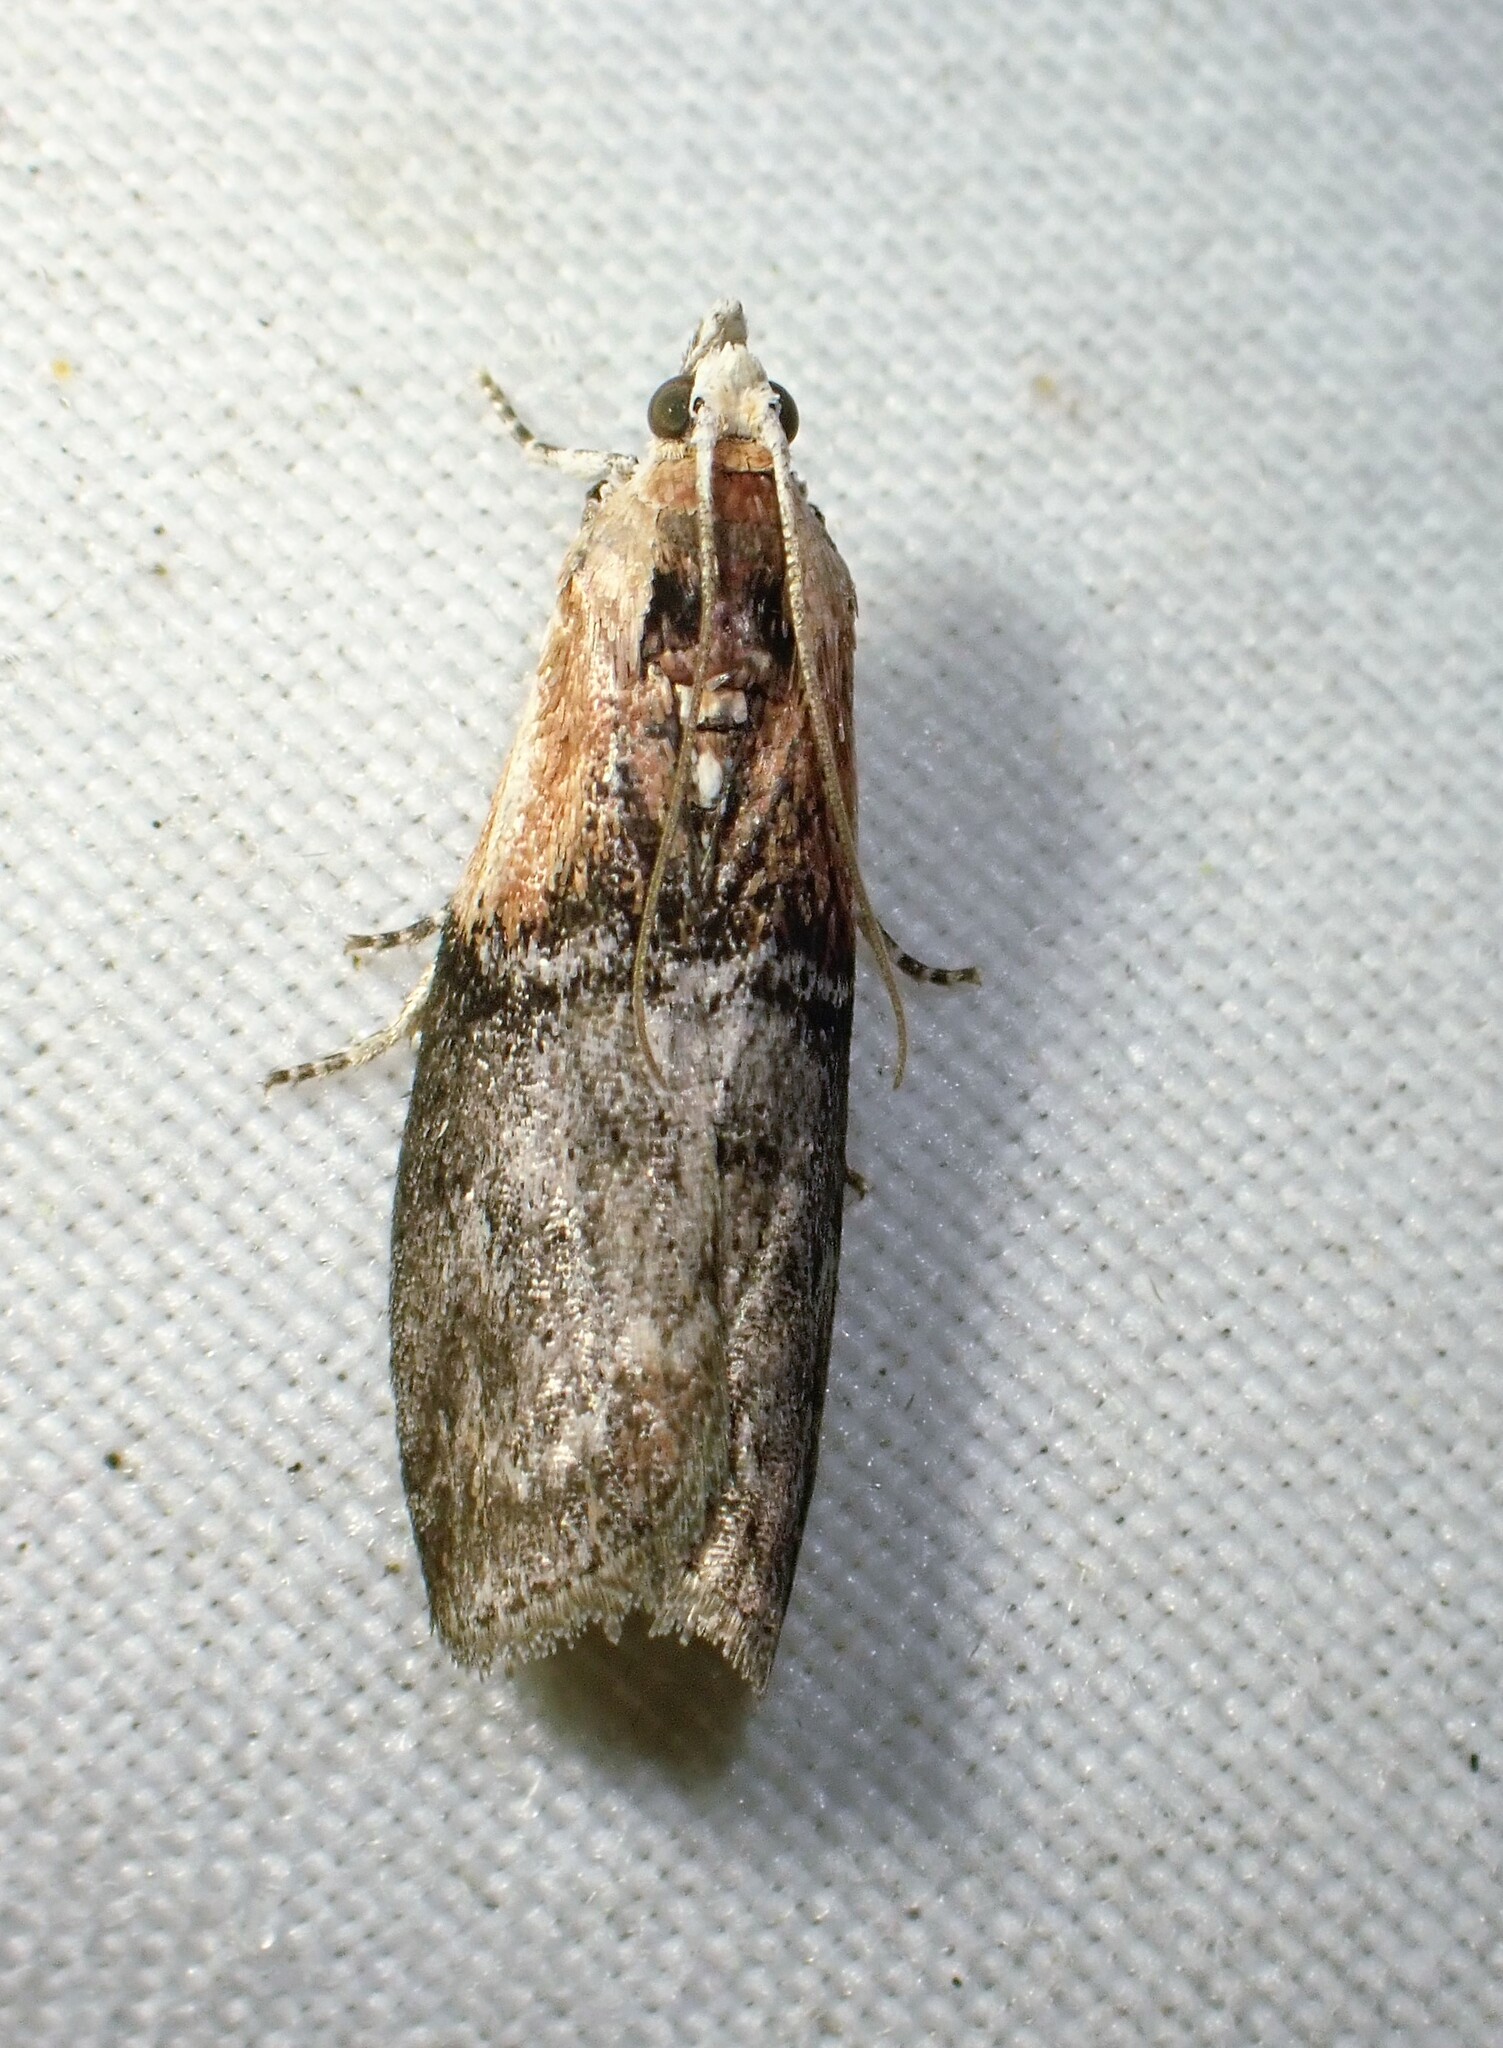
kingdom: Animalia
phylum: Arthropoda
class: Insecta
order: Lepidoptera
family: Pyralidae
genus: Sciota
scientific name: Sciota basilaris
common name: Yellow-shouldered leafroller
